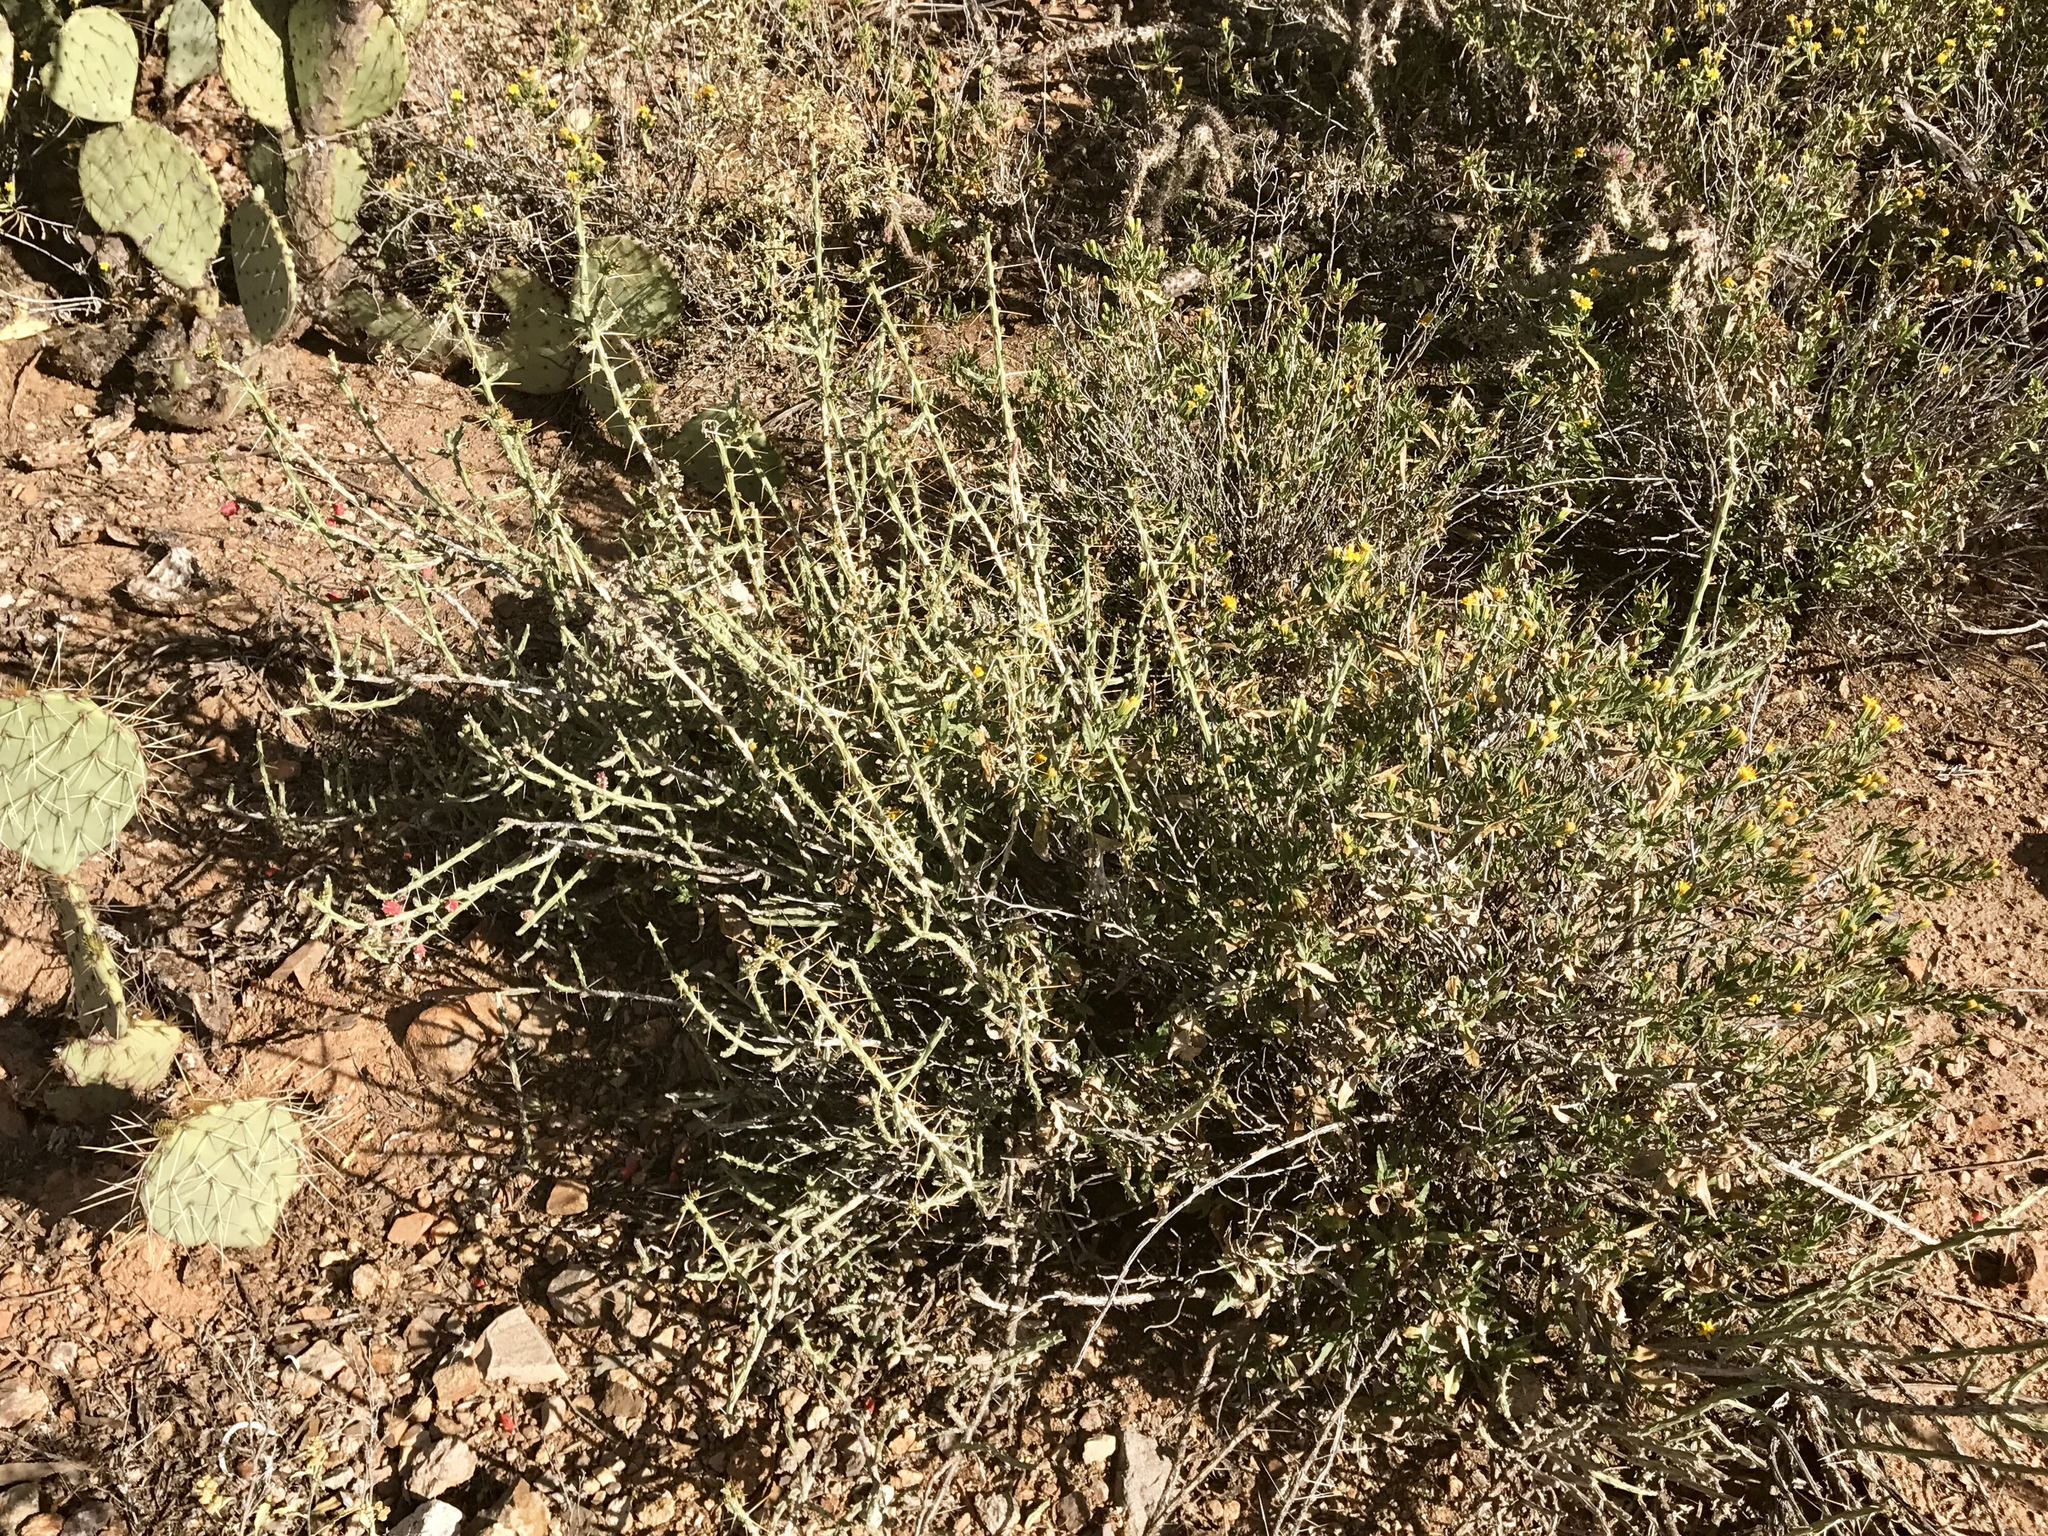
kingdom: Plantae
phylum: Tracheophyta
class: Magnoliopsida
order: Asterales
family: Asteraceae
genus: Trixis
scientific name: Trixis californica
